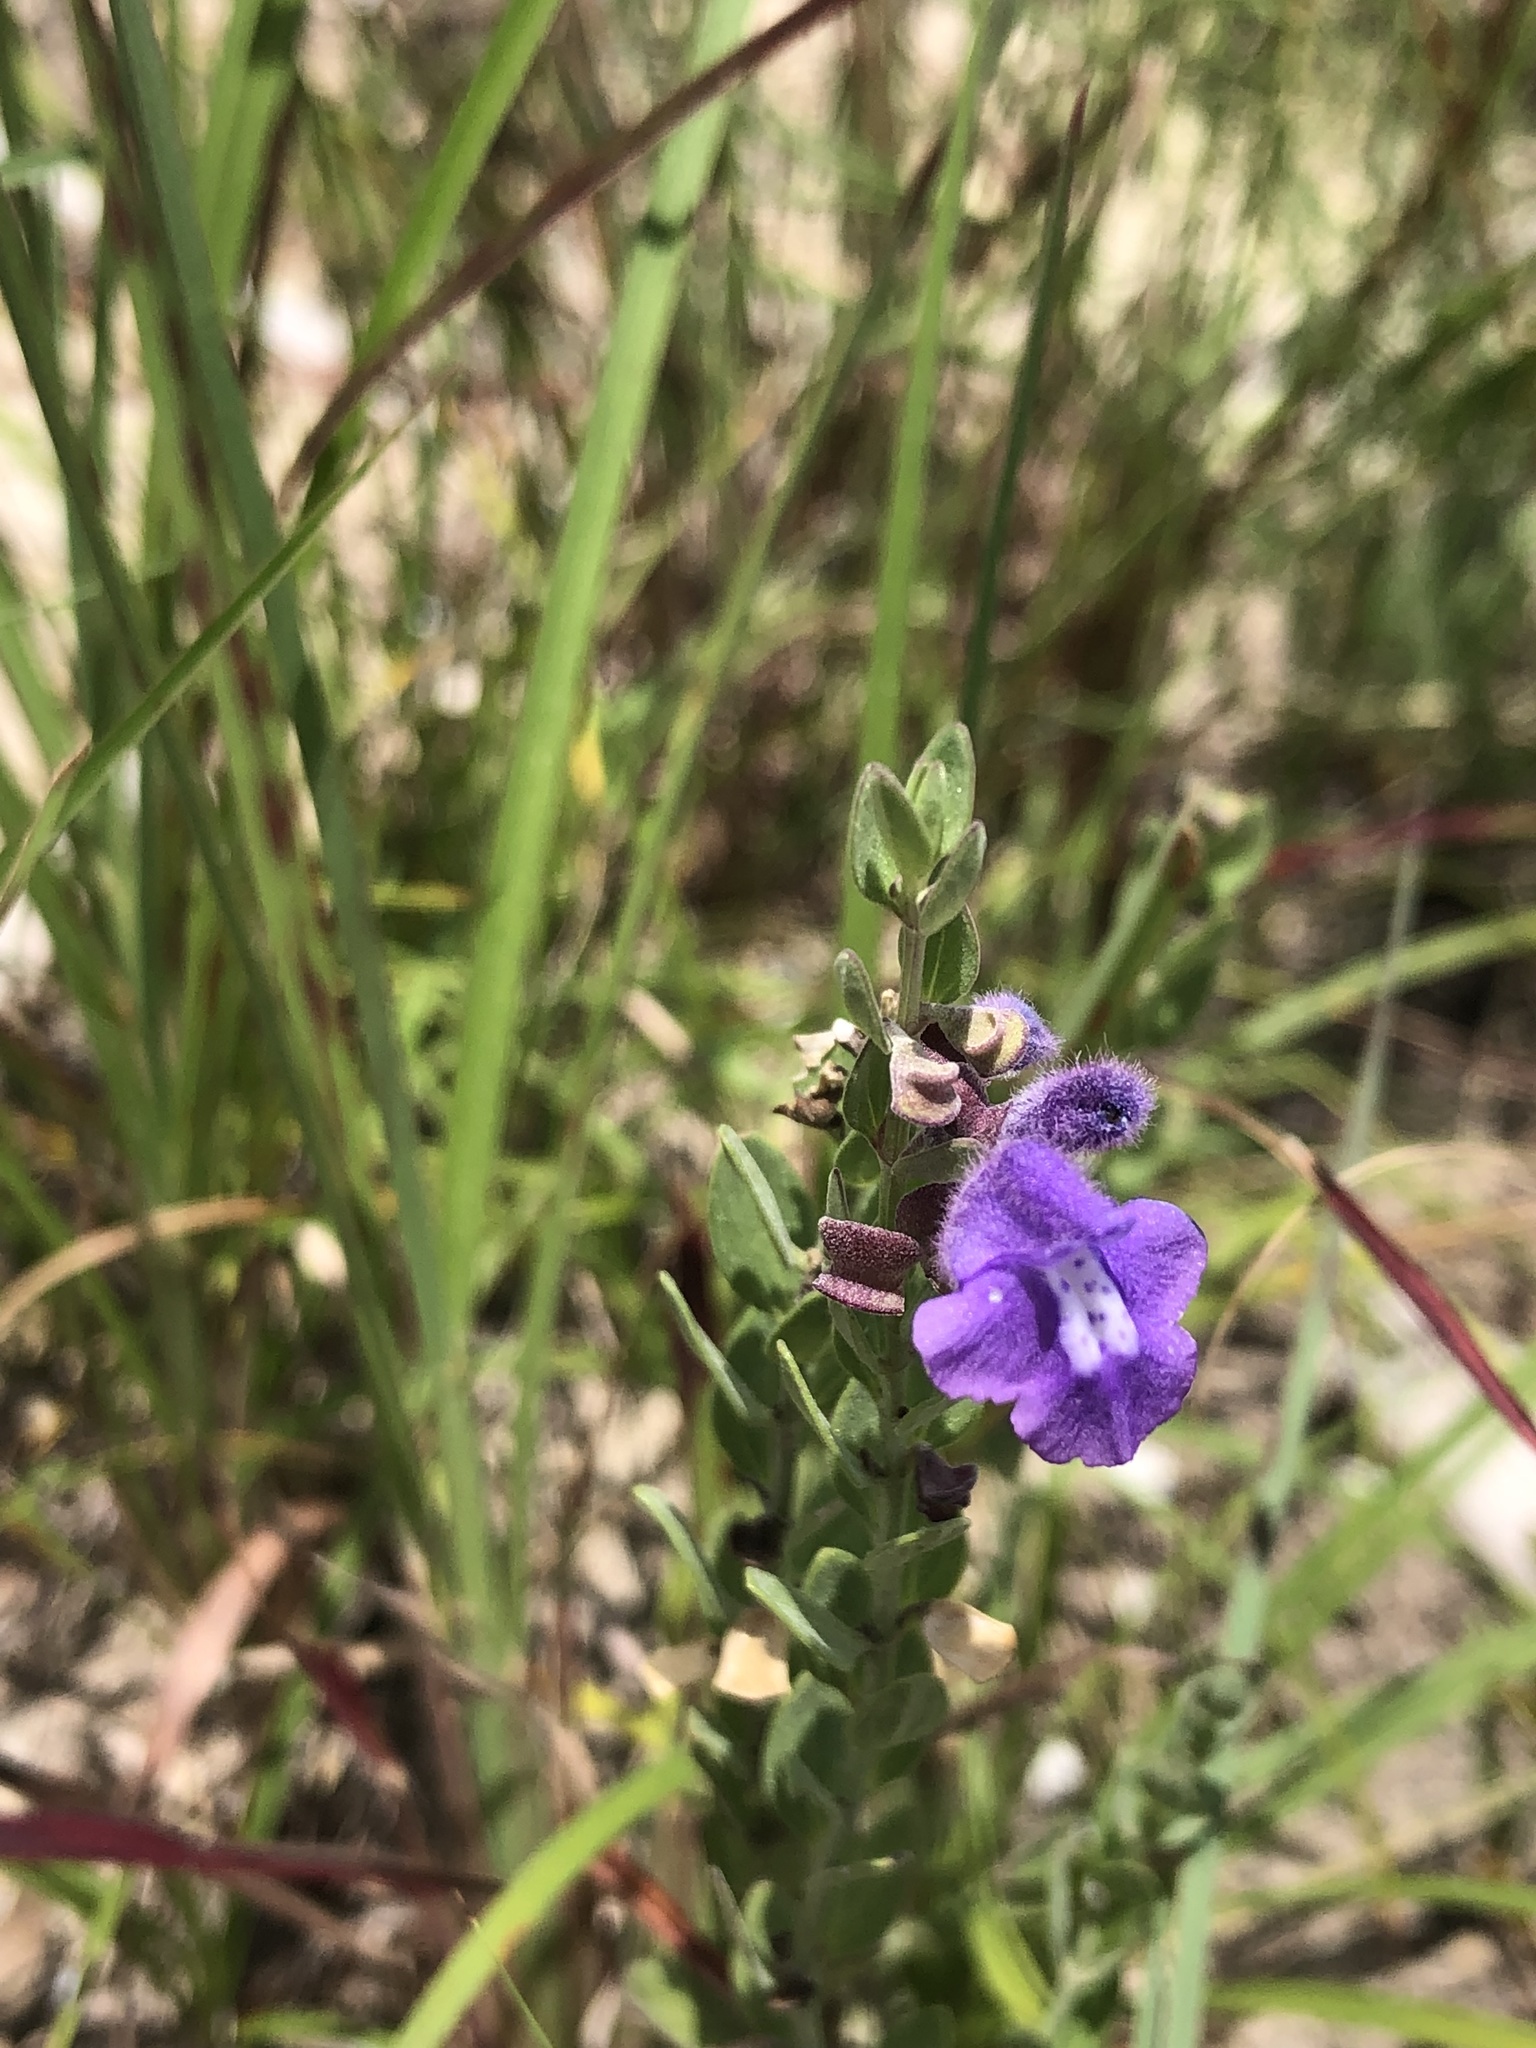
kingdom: Plantae
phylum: Tracheophyta
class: Magnoliopsida
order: Lamiales
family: Lamiaceae
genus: Scutellaria
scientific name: Scutellaria wrightii
